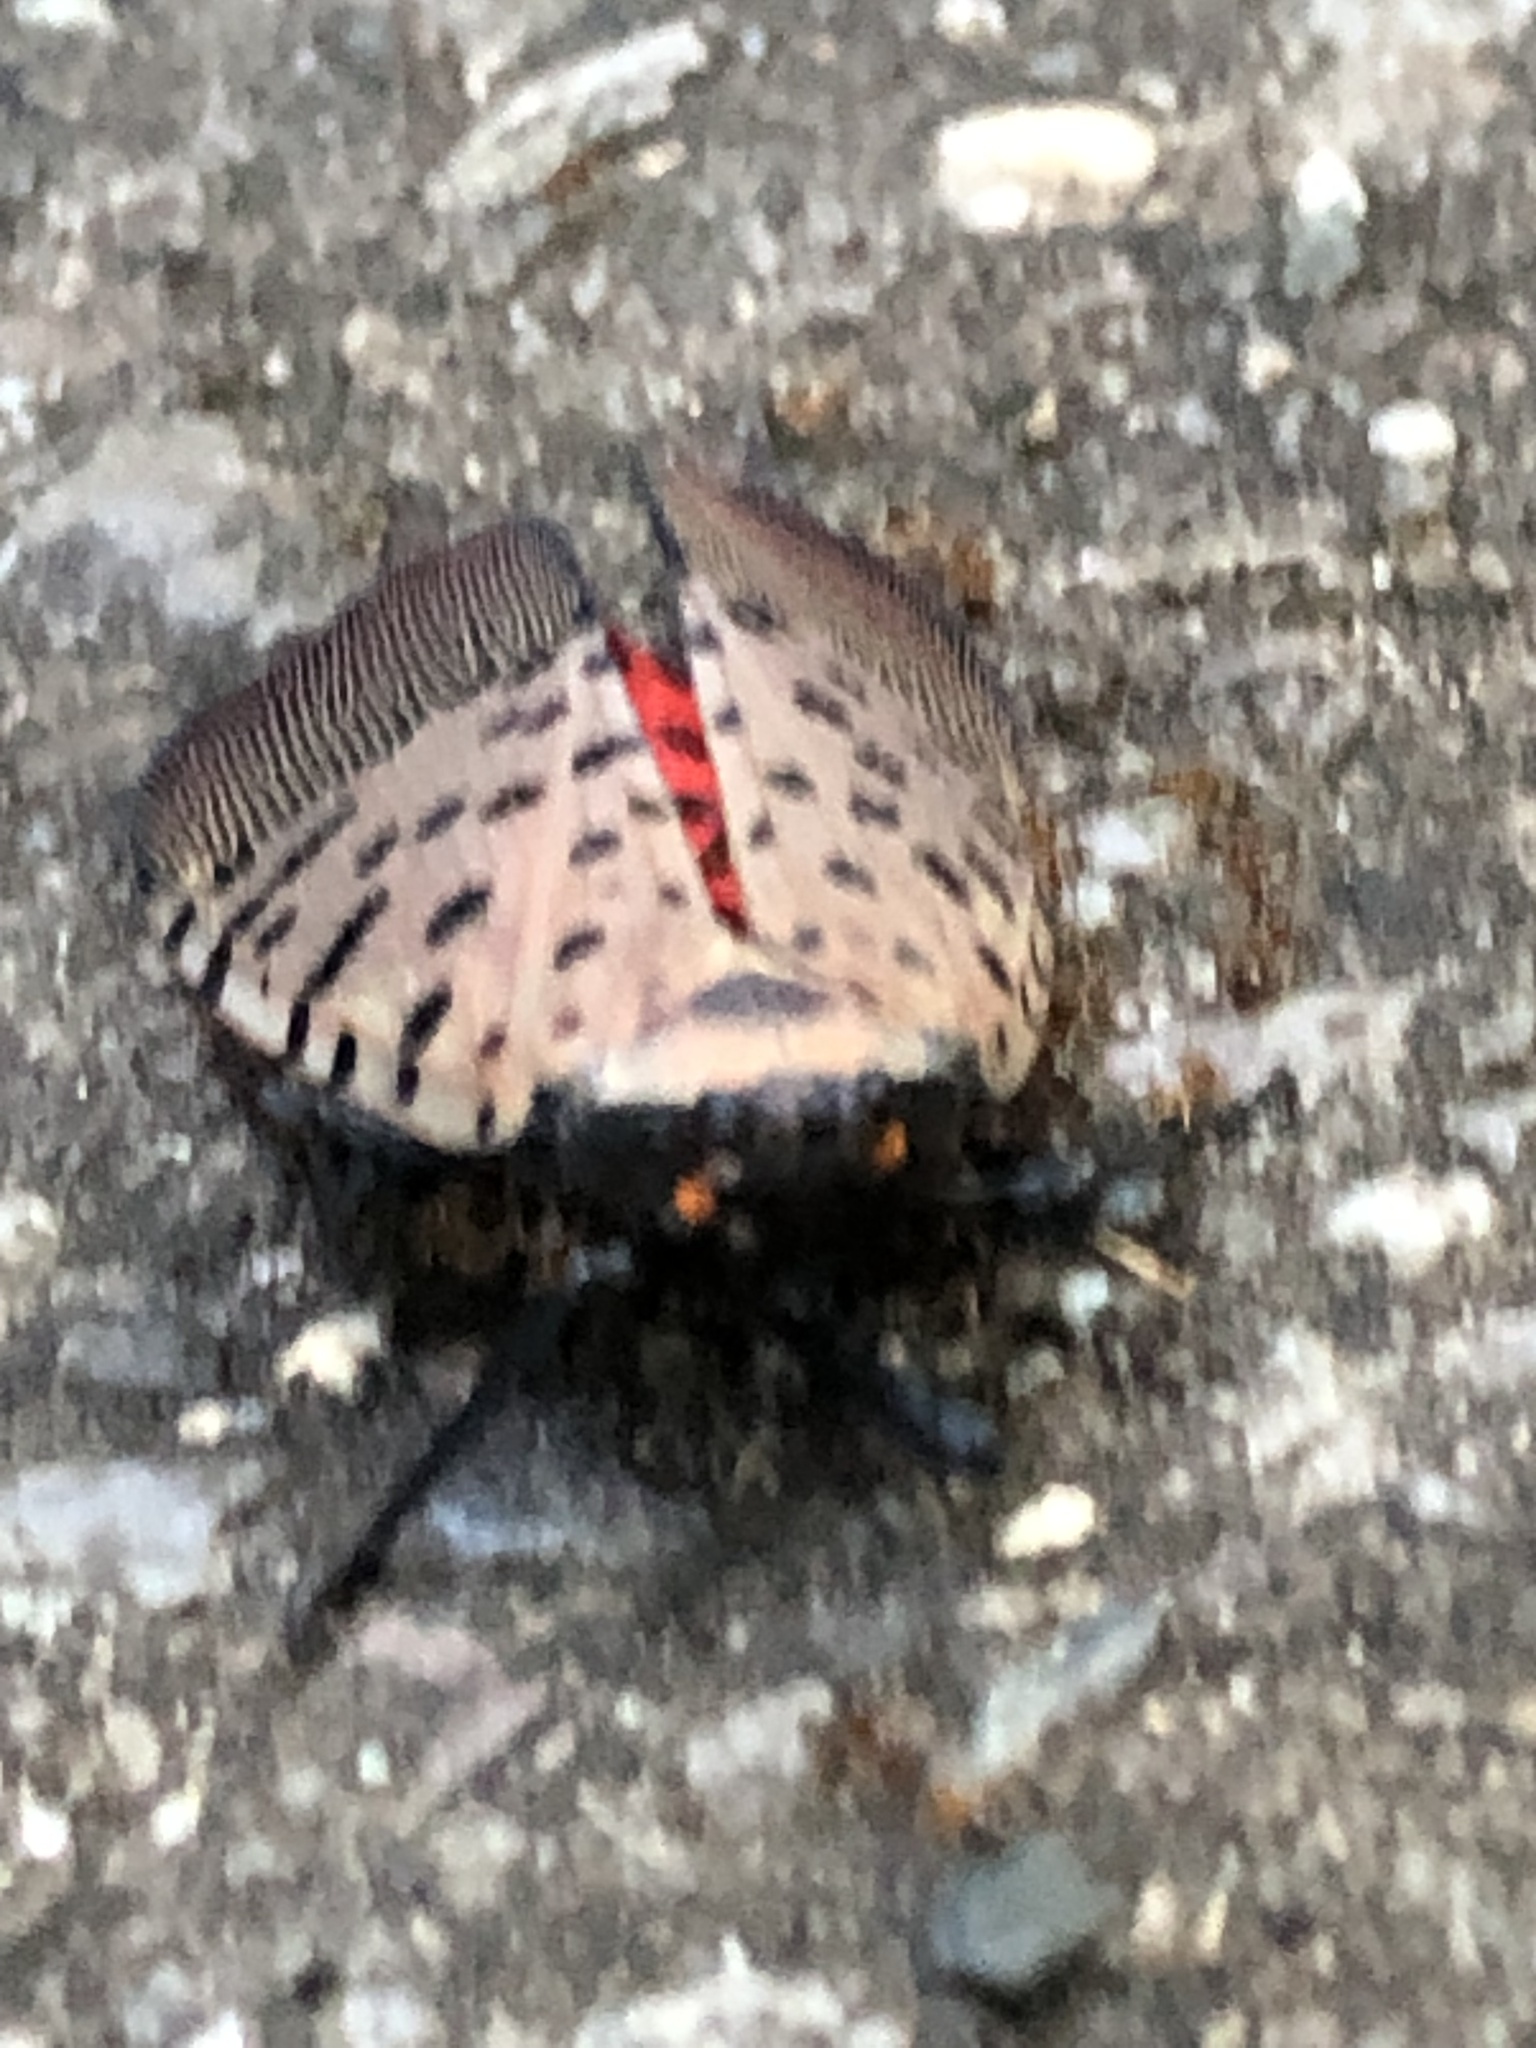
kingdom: Animalia
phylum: Arthropoda
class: Insecta
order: Hemiptera
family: Fulgoridae
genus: Lycorma
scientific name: Lycorma delicatula
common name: Spotted lanternfly
